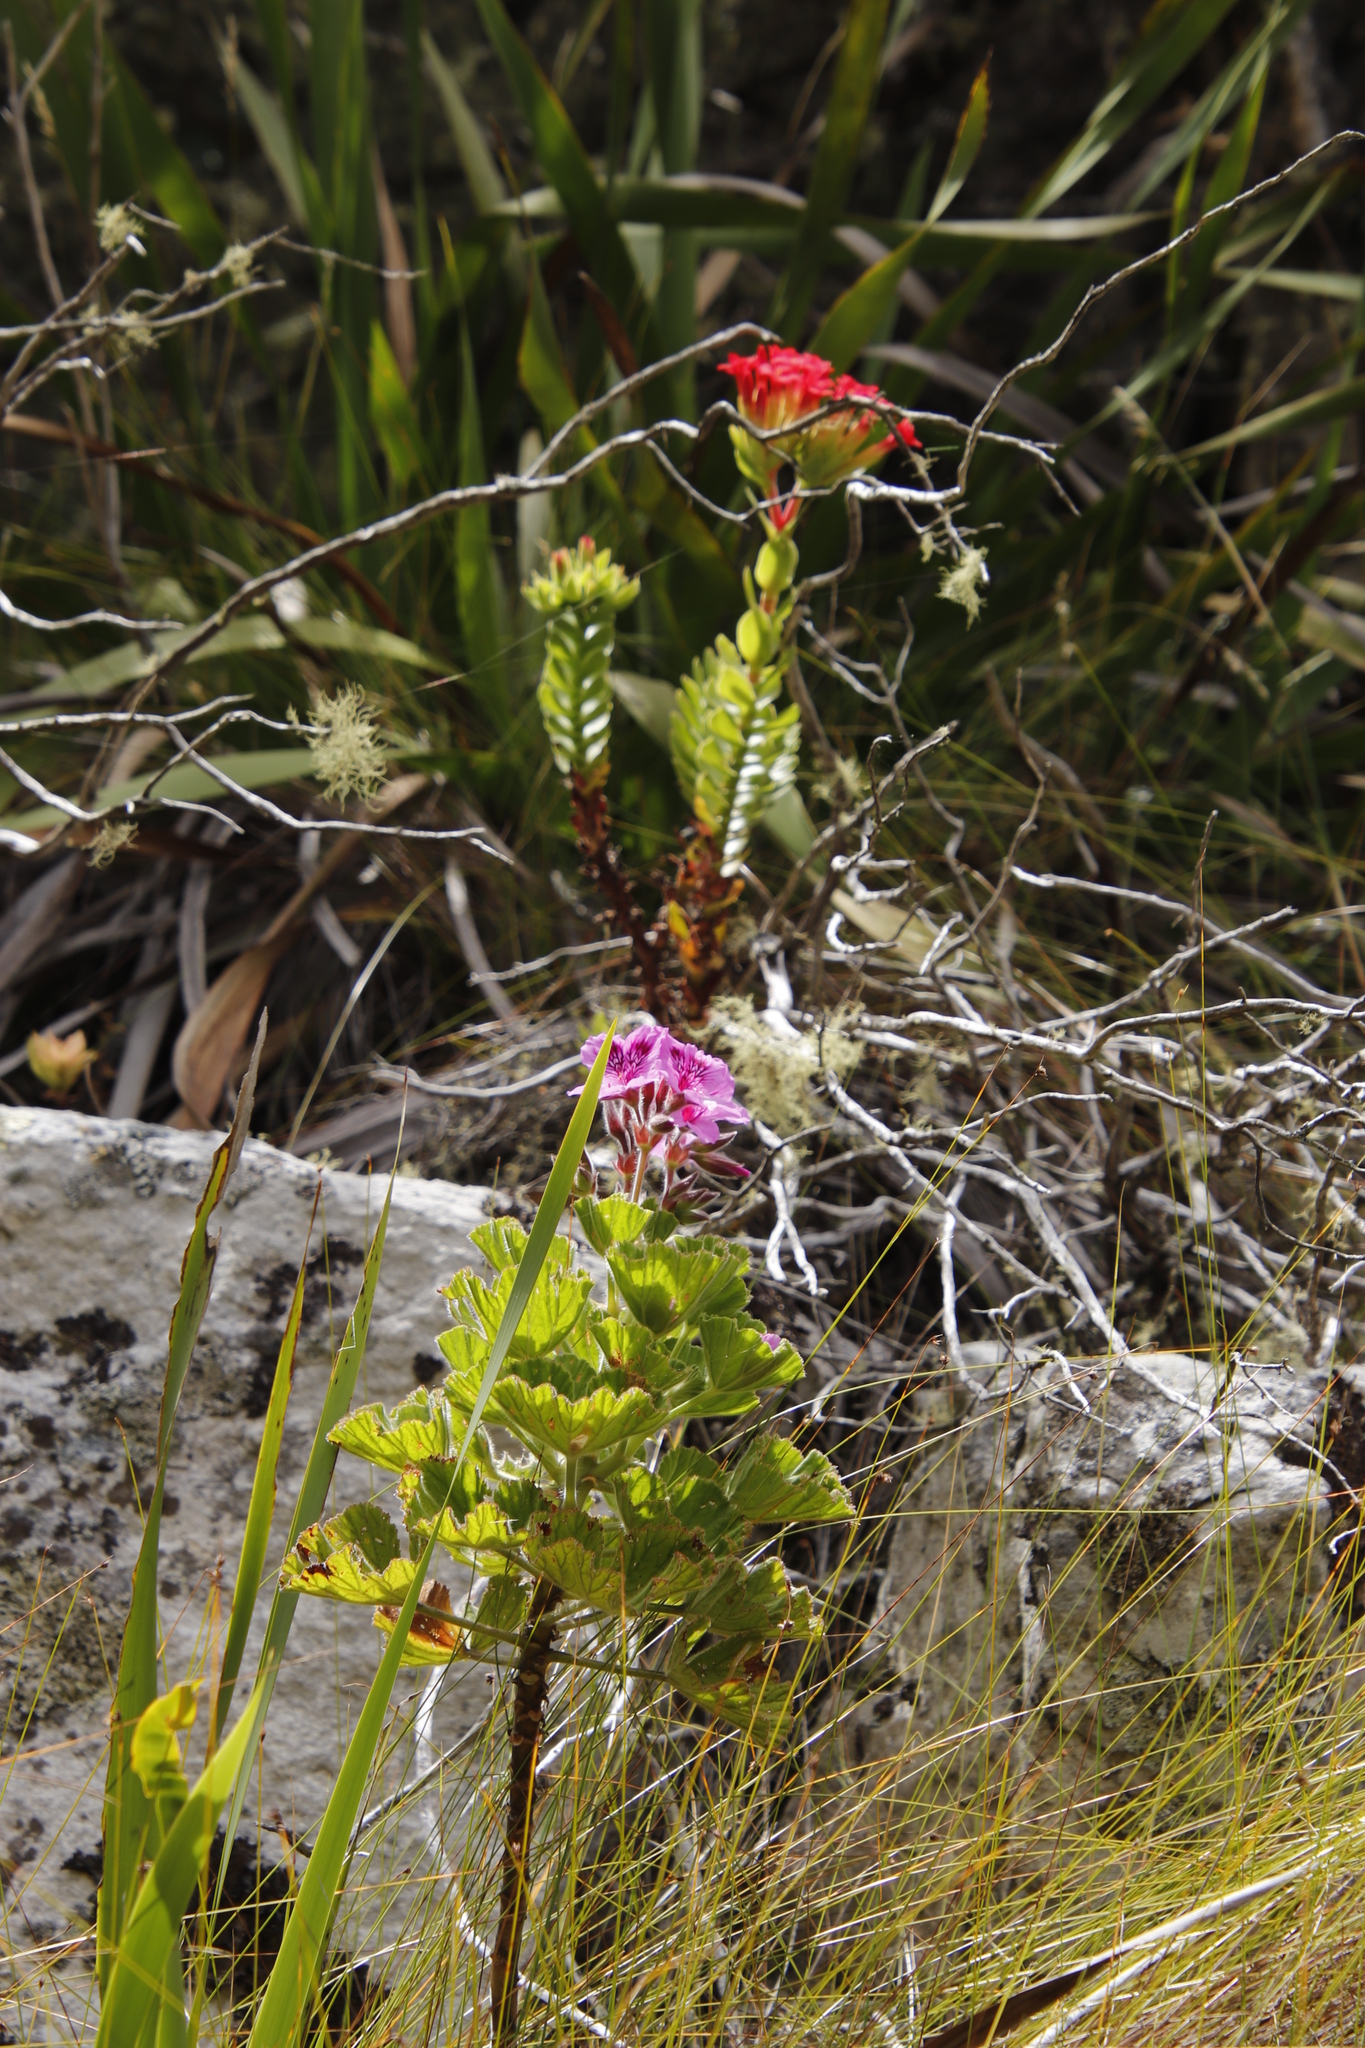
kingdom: Plantae
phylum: Tracheophyta
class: Magnoliopsida
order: Saxifragales
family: Crassulaceae
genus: Crassula
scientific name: Crassula coccinea
